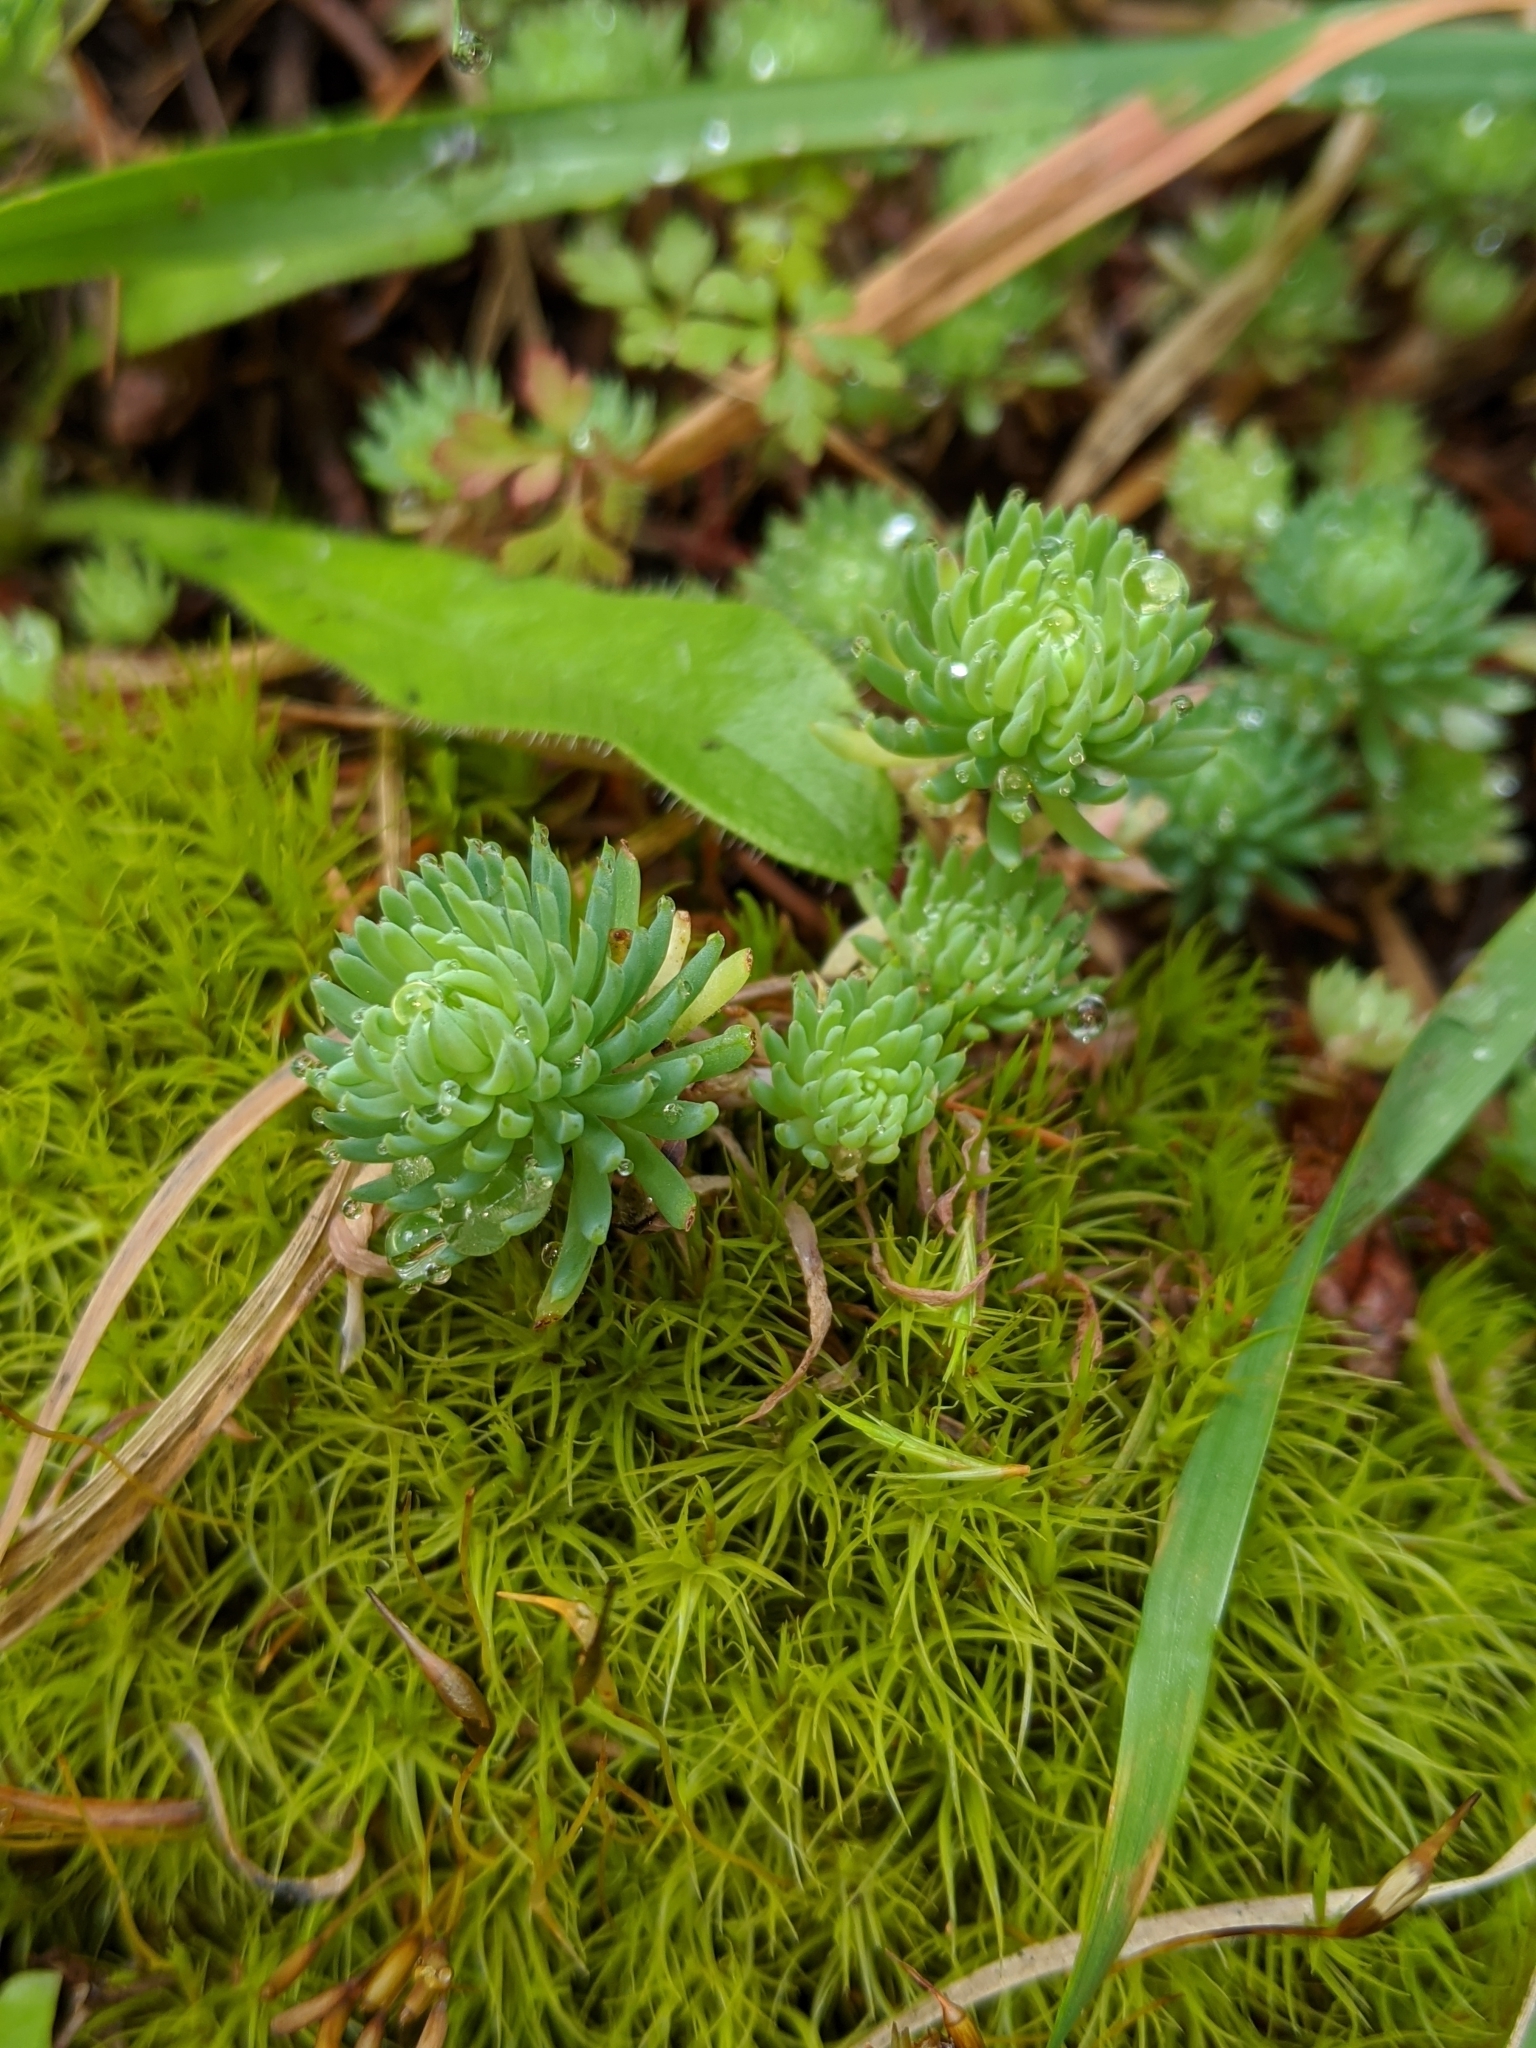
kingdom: Plantae
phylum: Tracheophyta
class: Magnoliopsida
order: Saxifragales
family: Crassulaceae
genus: Petrosedum
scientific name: Petrosedum forsterianum
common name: Forster's stonecrop
